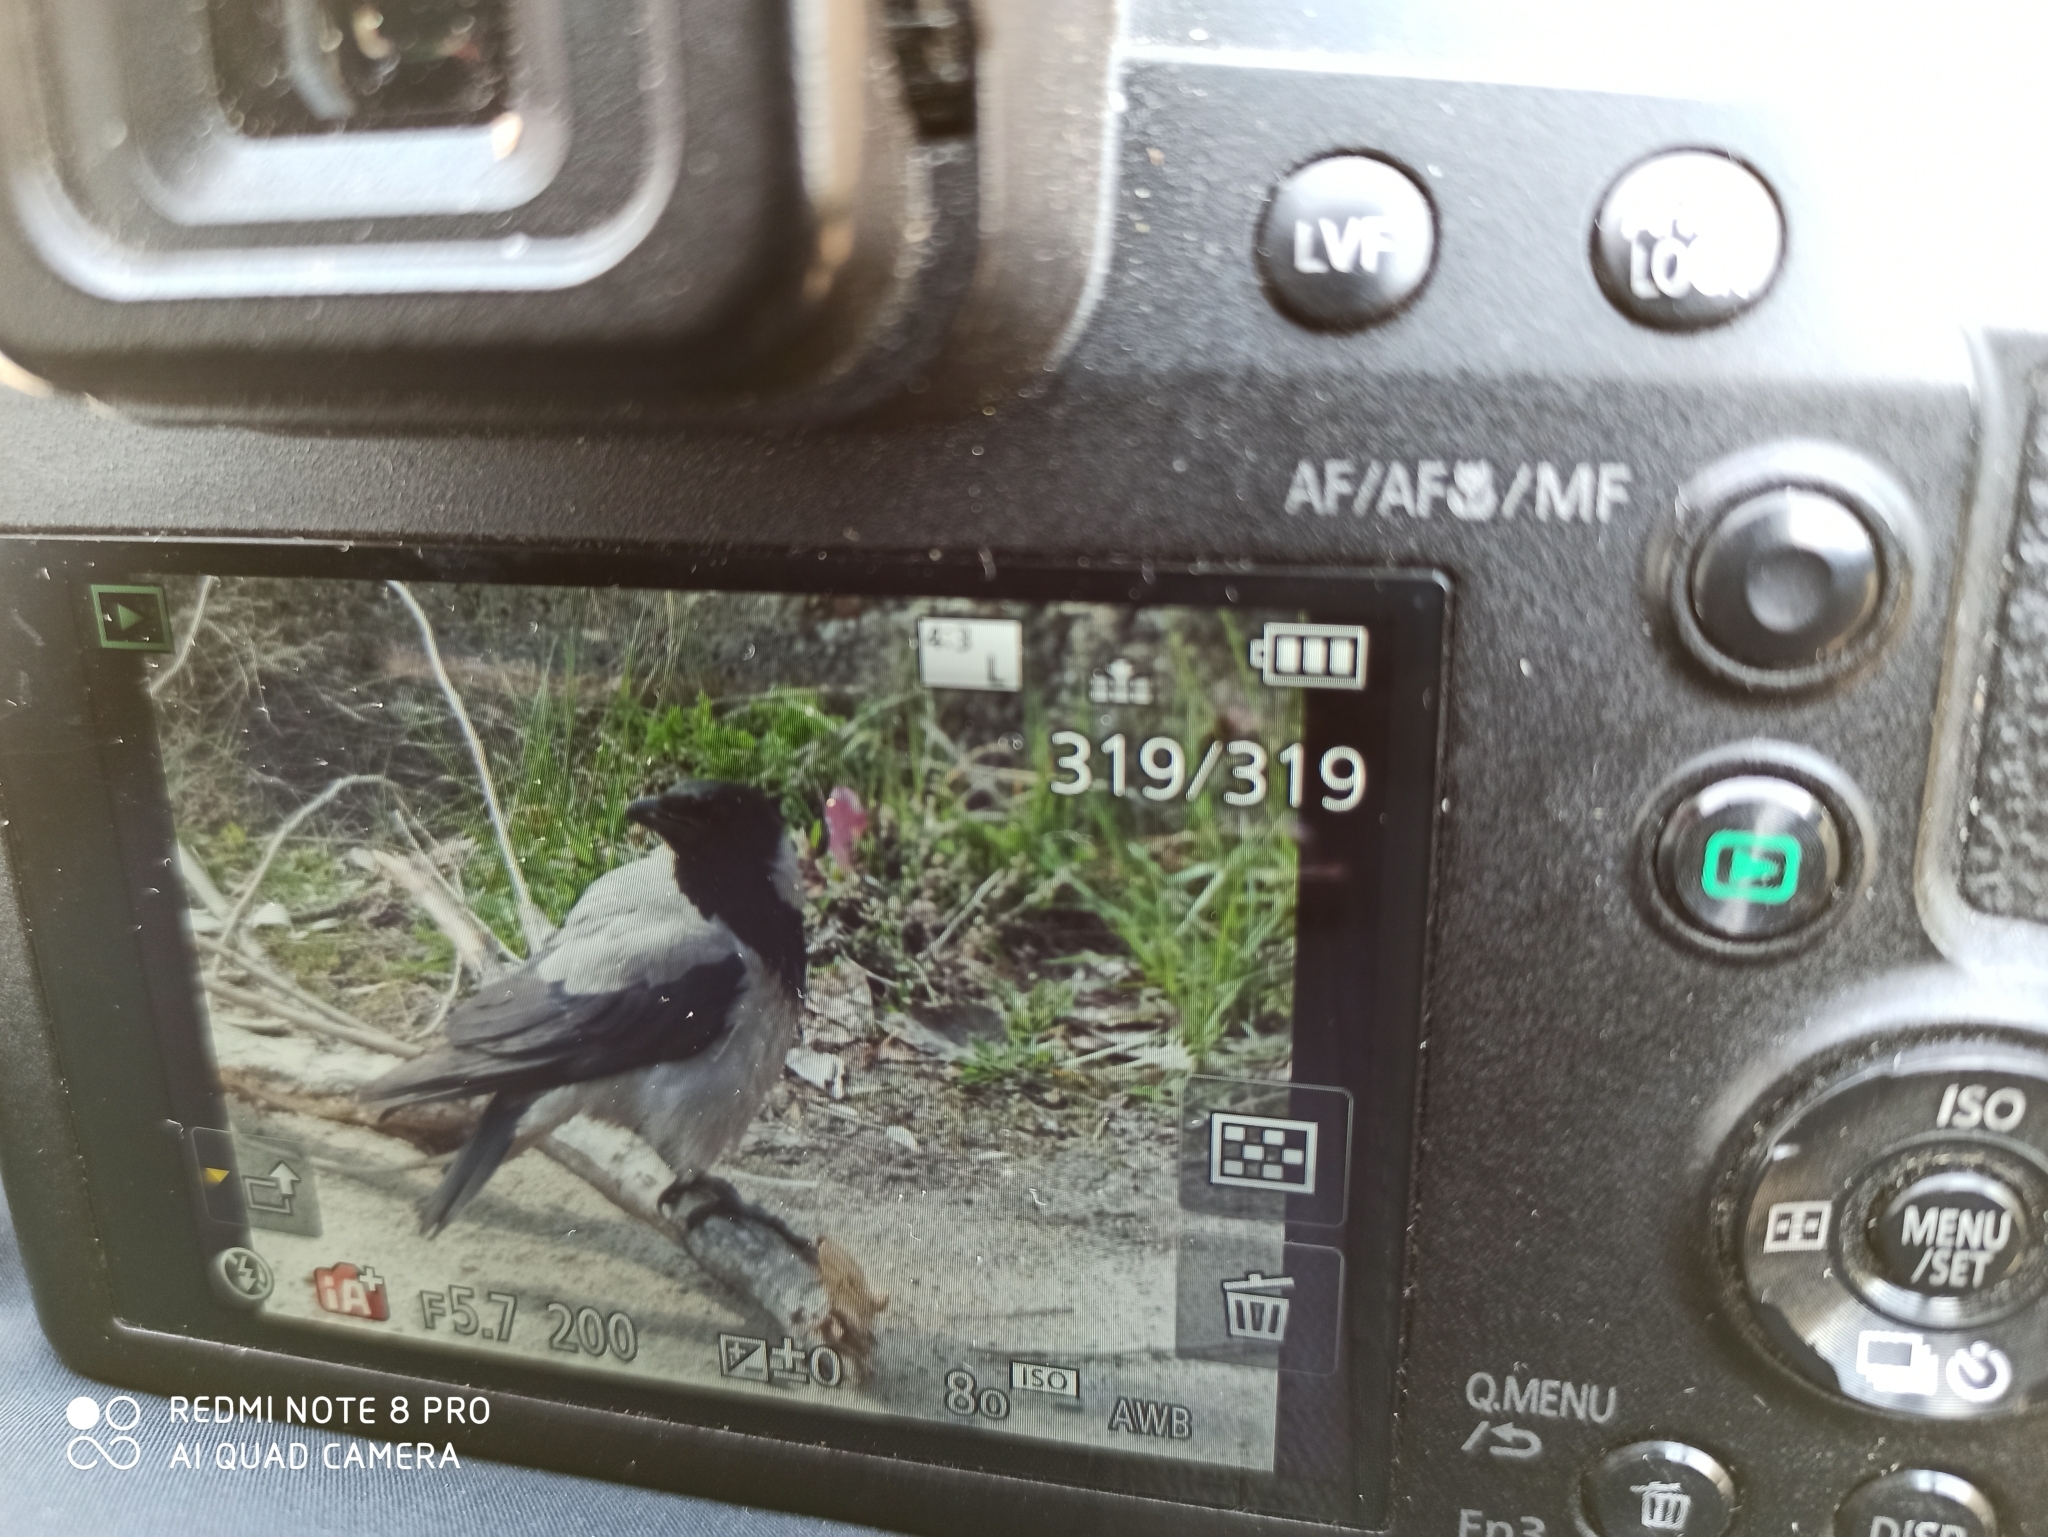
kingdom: Animalia
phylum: Chordata
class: Aves
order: Passeriformes
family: Corvidae
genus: Corvus
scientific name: Corvus cornix
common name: Hooded crow
